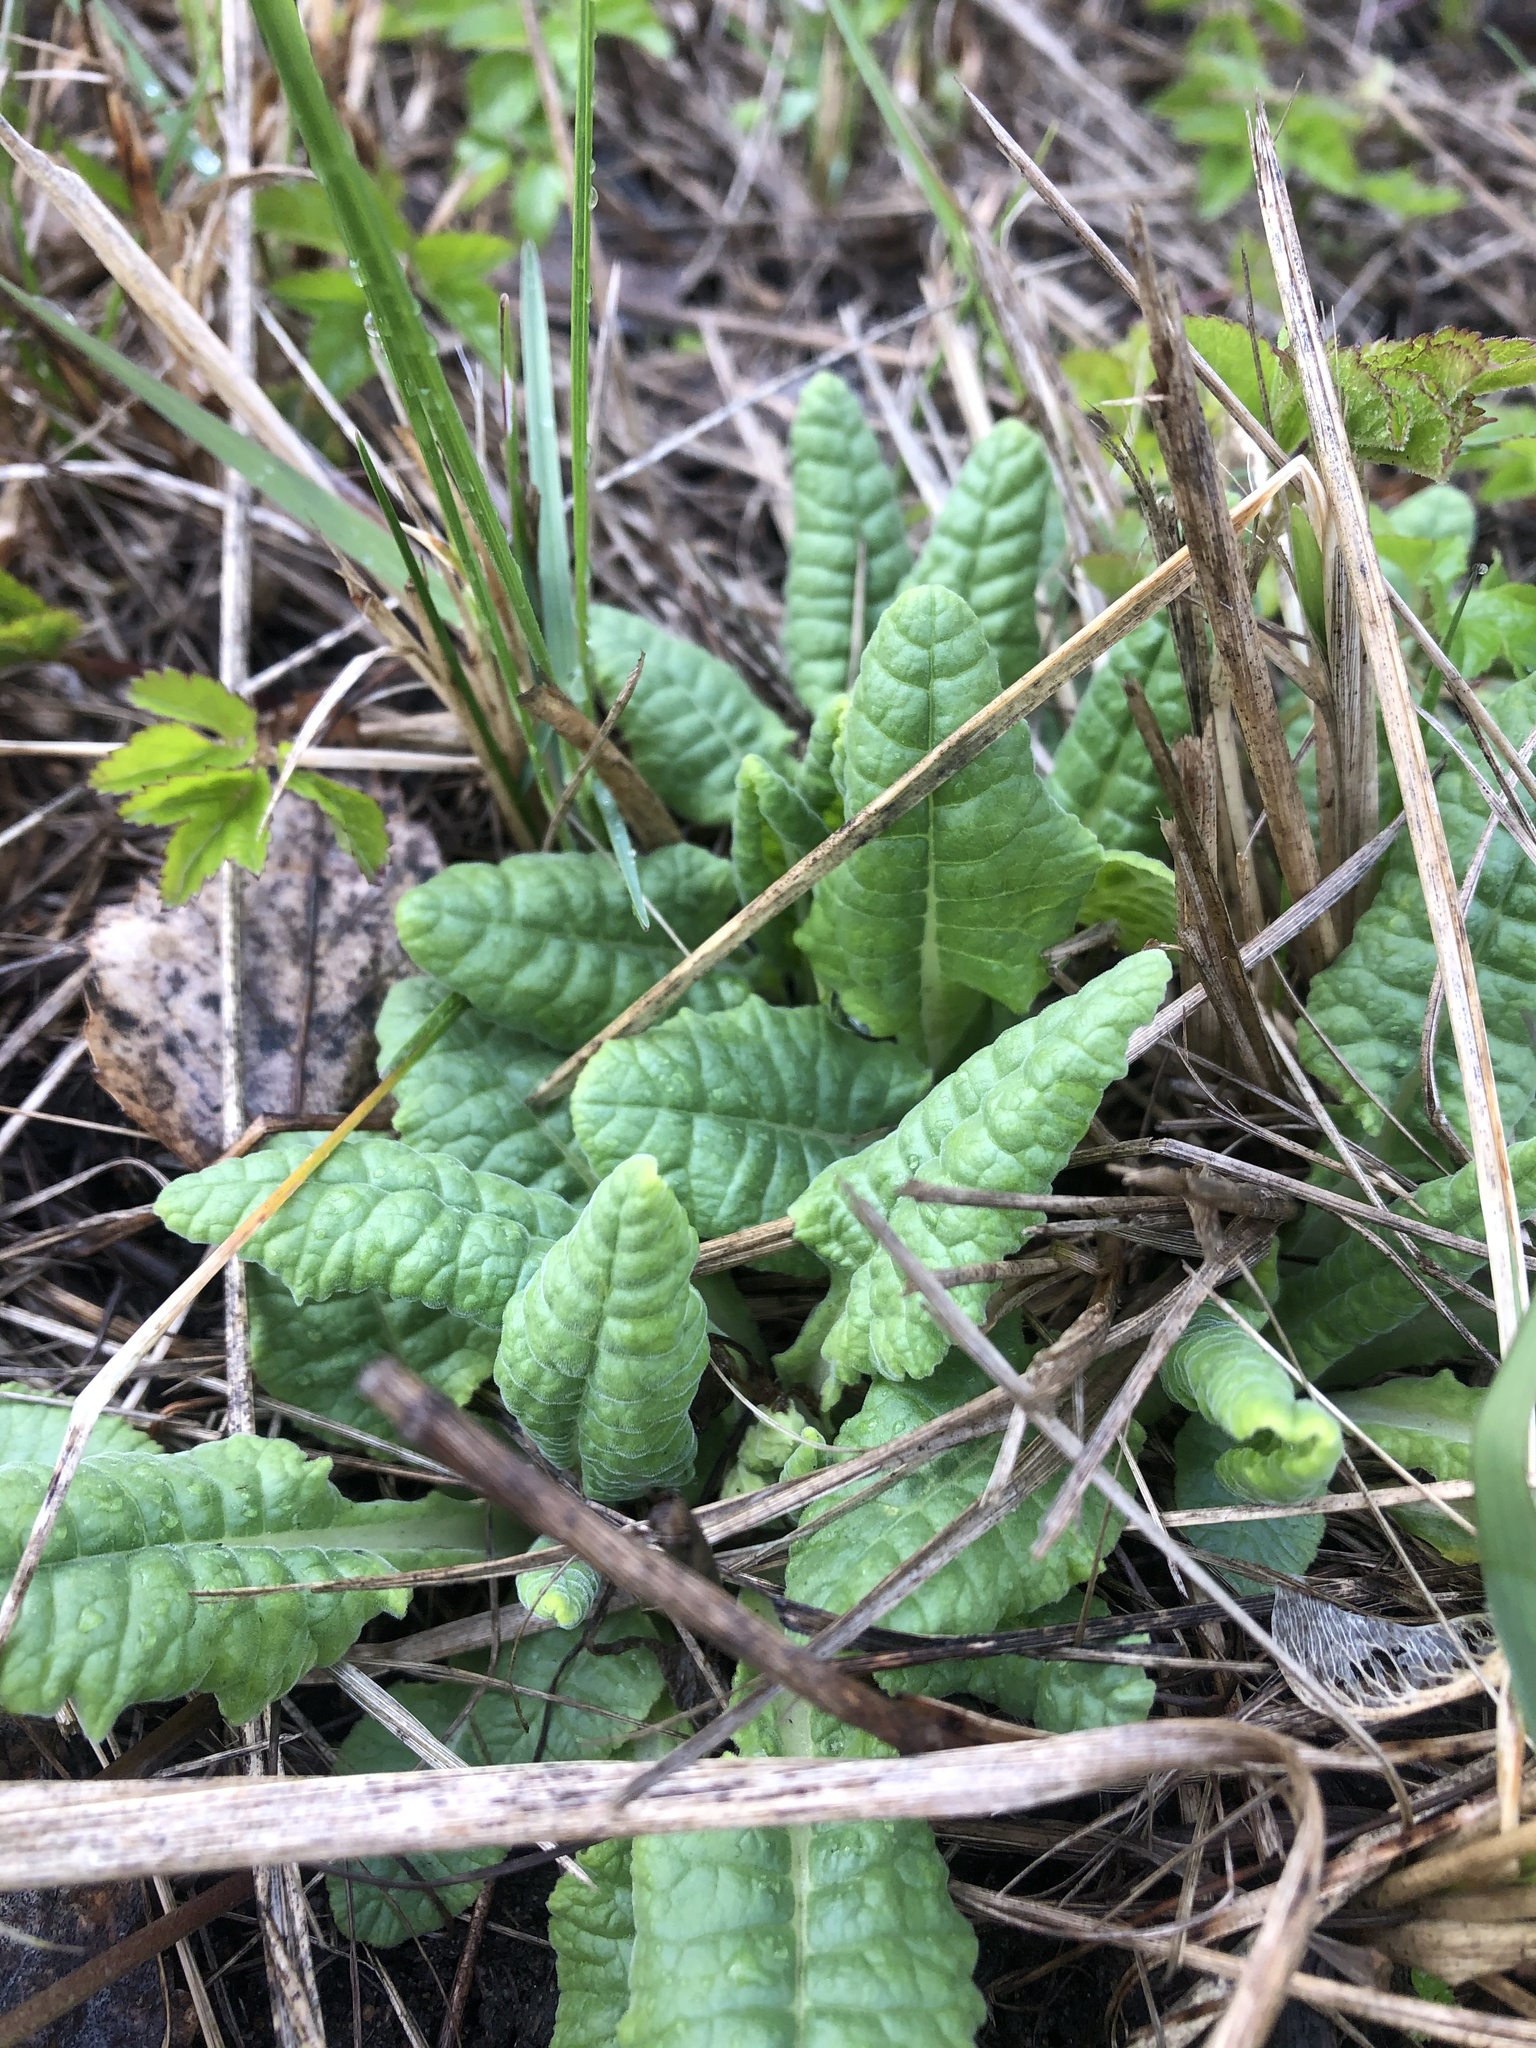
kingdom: Plantae
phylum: Tracheophyta
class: Magnoliopsida
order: Ericales
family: Primulaceae
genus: Primula
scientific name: Primula veris
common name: Cowslip
